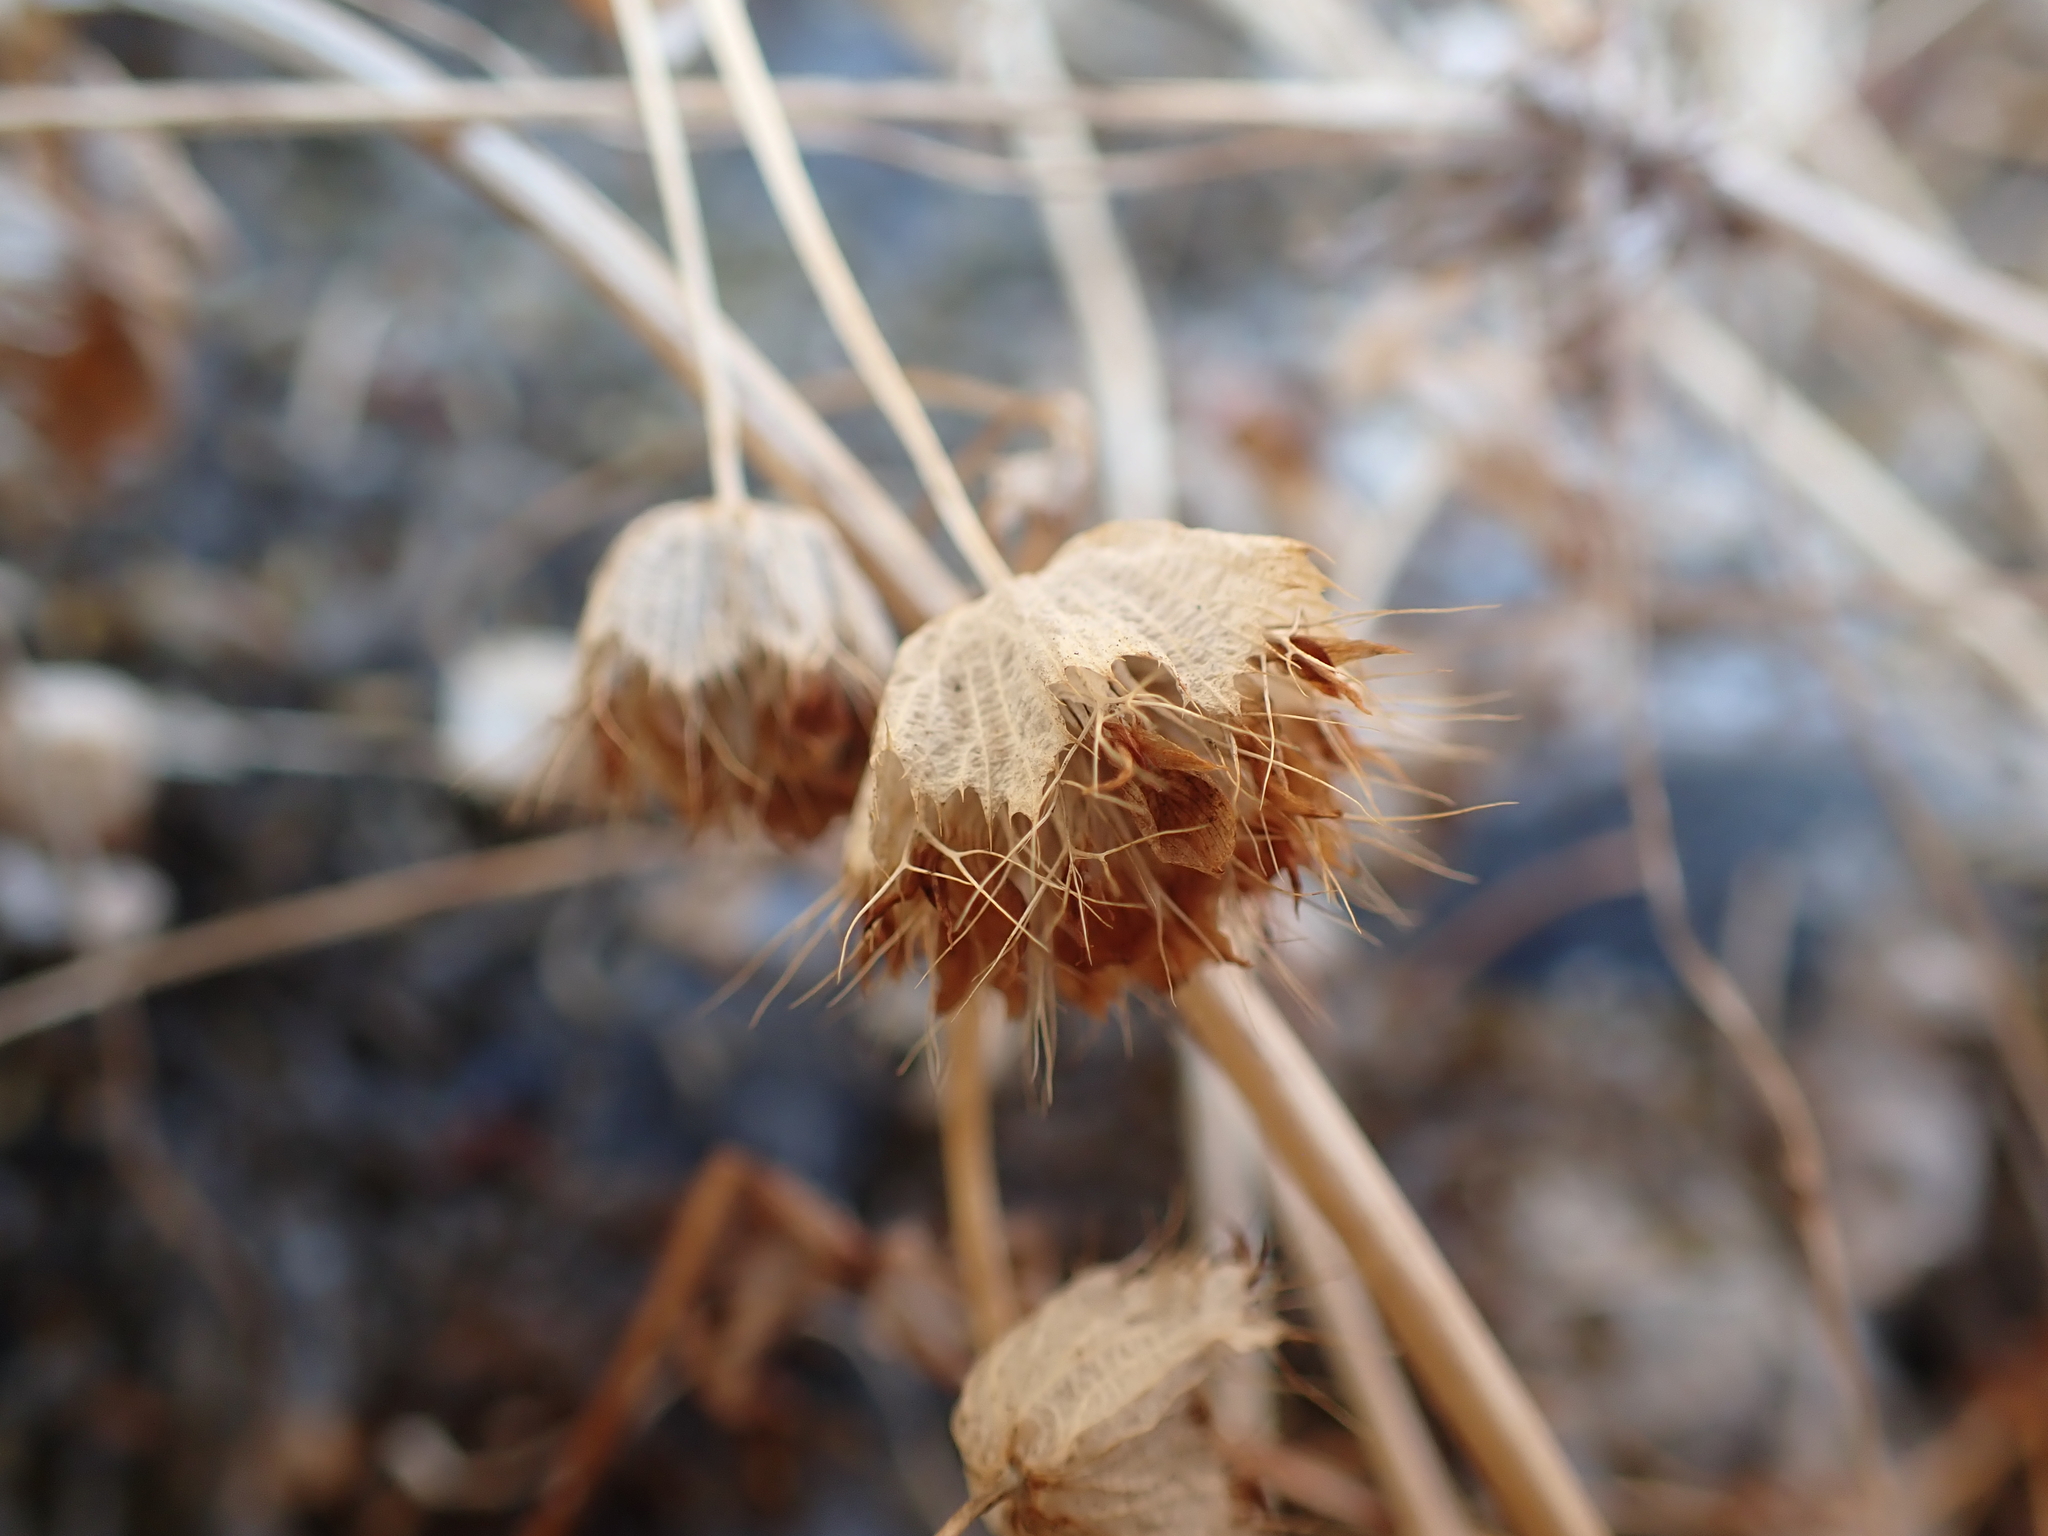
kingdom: Plantae
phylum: Tracheophyta
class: Magnoliopsida
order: Fabales
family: Fabaceae
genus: Trifolium
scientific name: Trifolium cyathiferum
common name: Bowl clover
